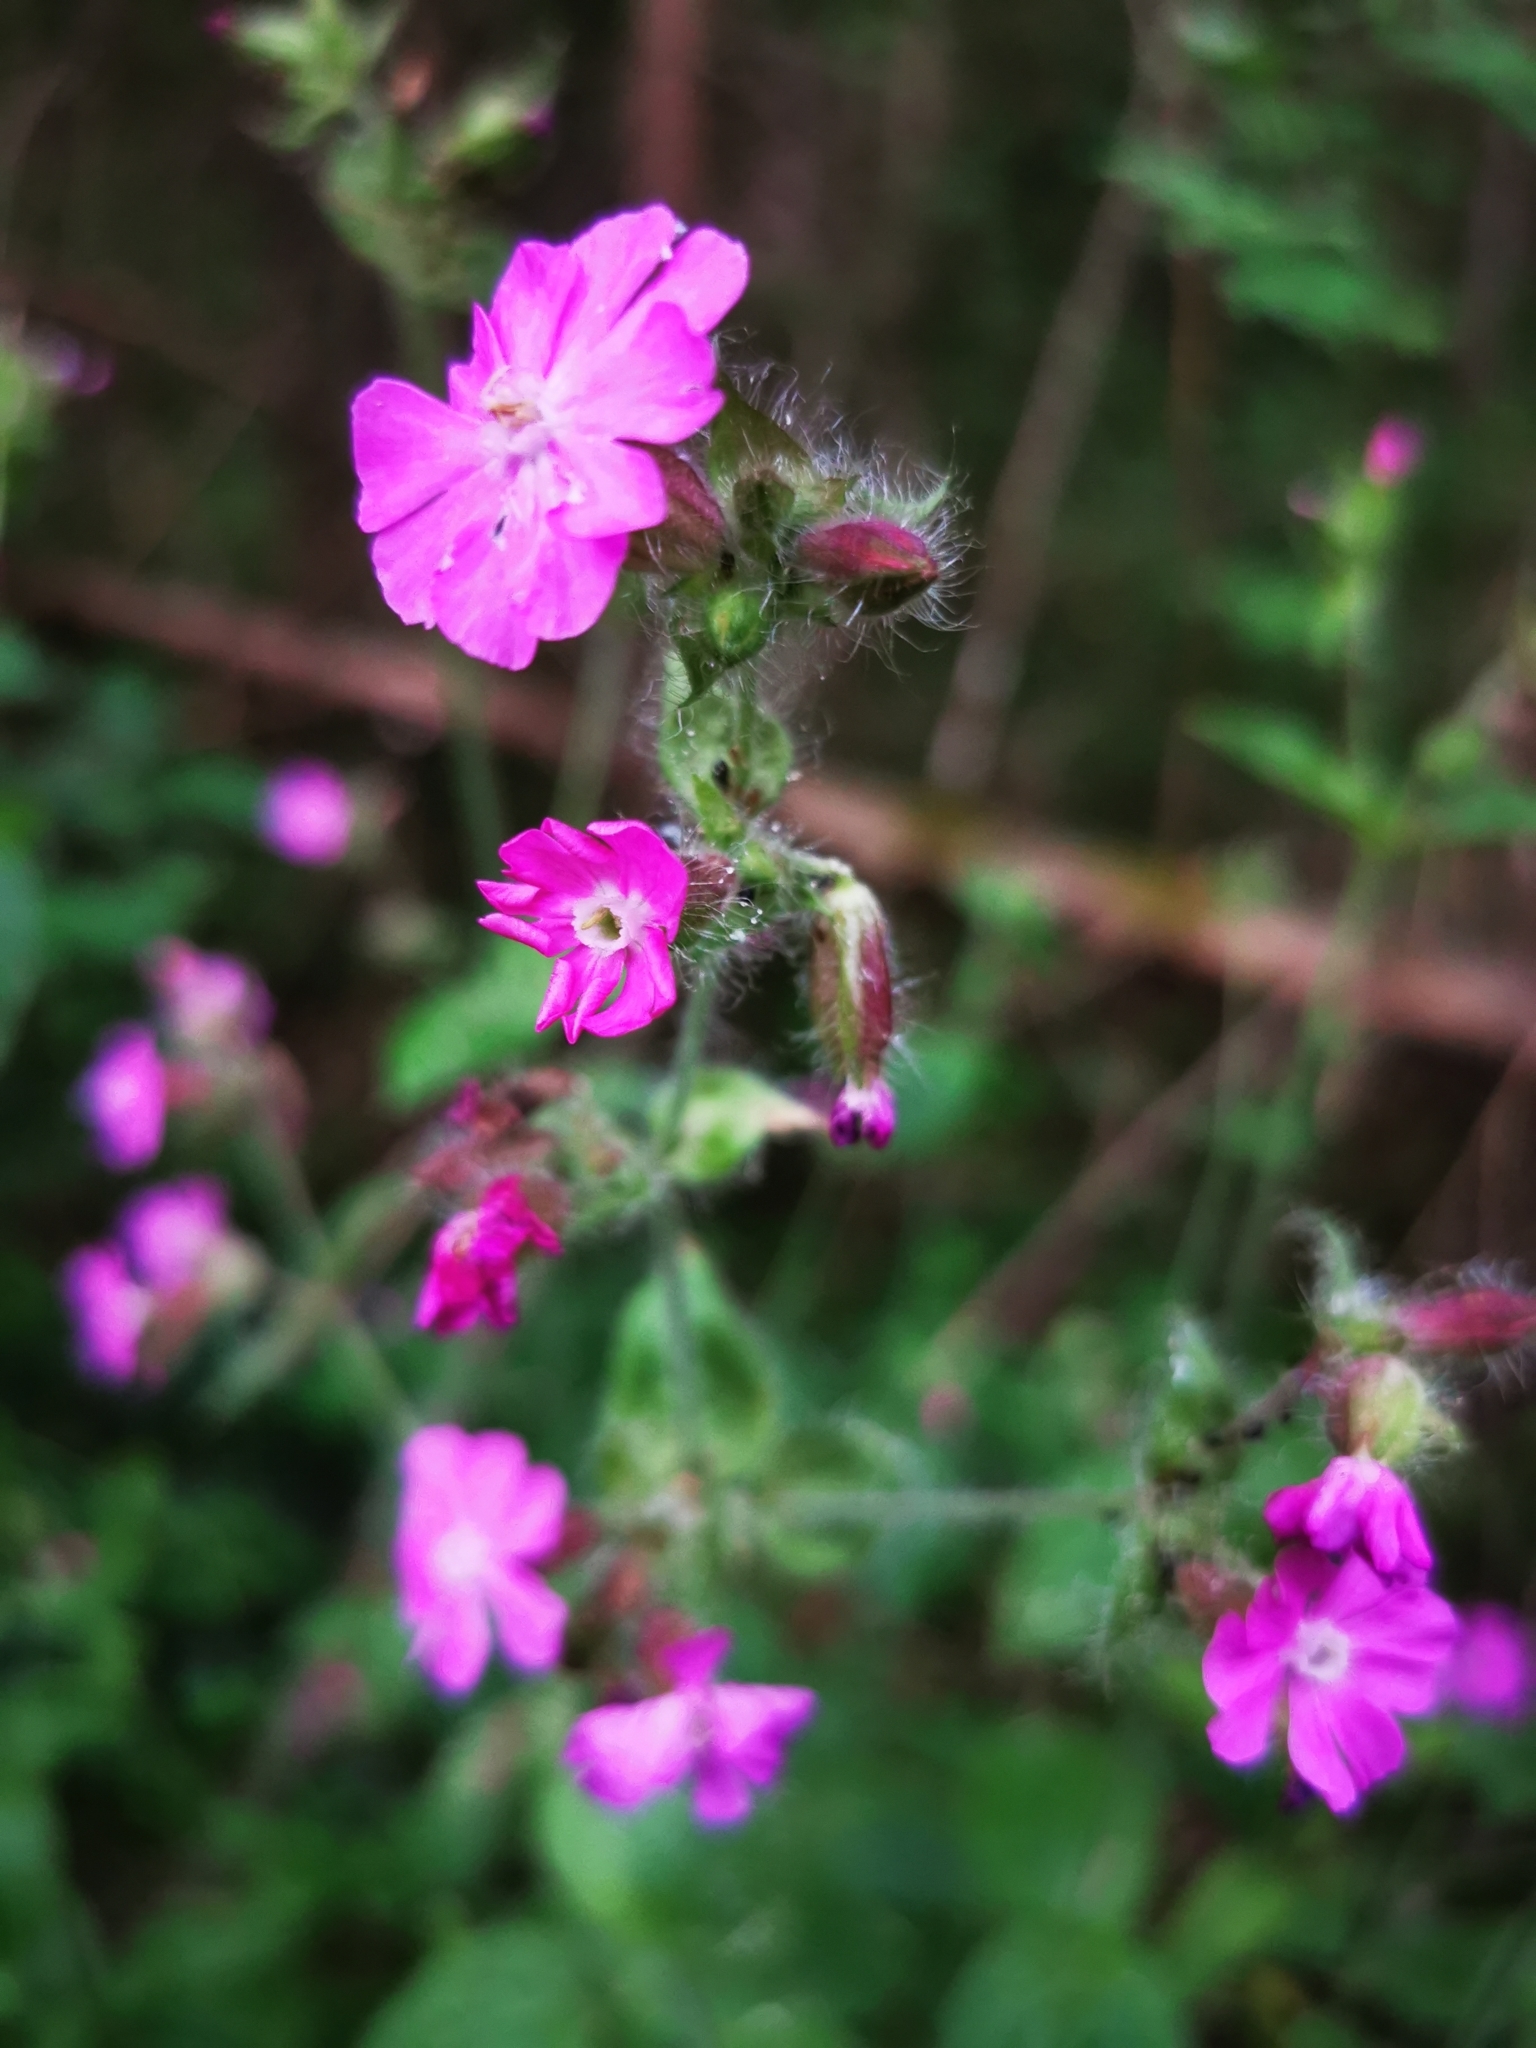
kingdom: Plantae
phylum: Tracheophyta
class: Magnoliopsida
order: Caryophyllales
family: Caryophyllaceae
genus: Silene
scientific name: Silene dioica
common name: Red campion
